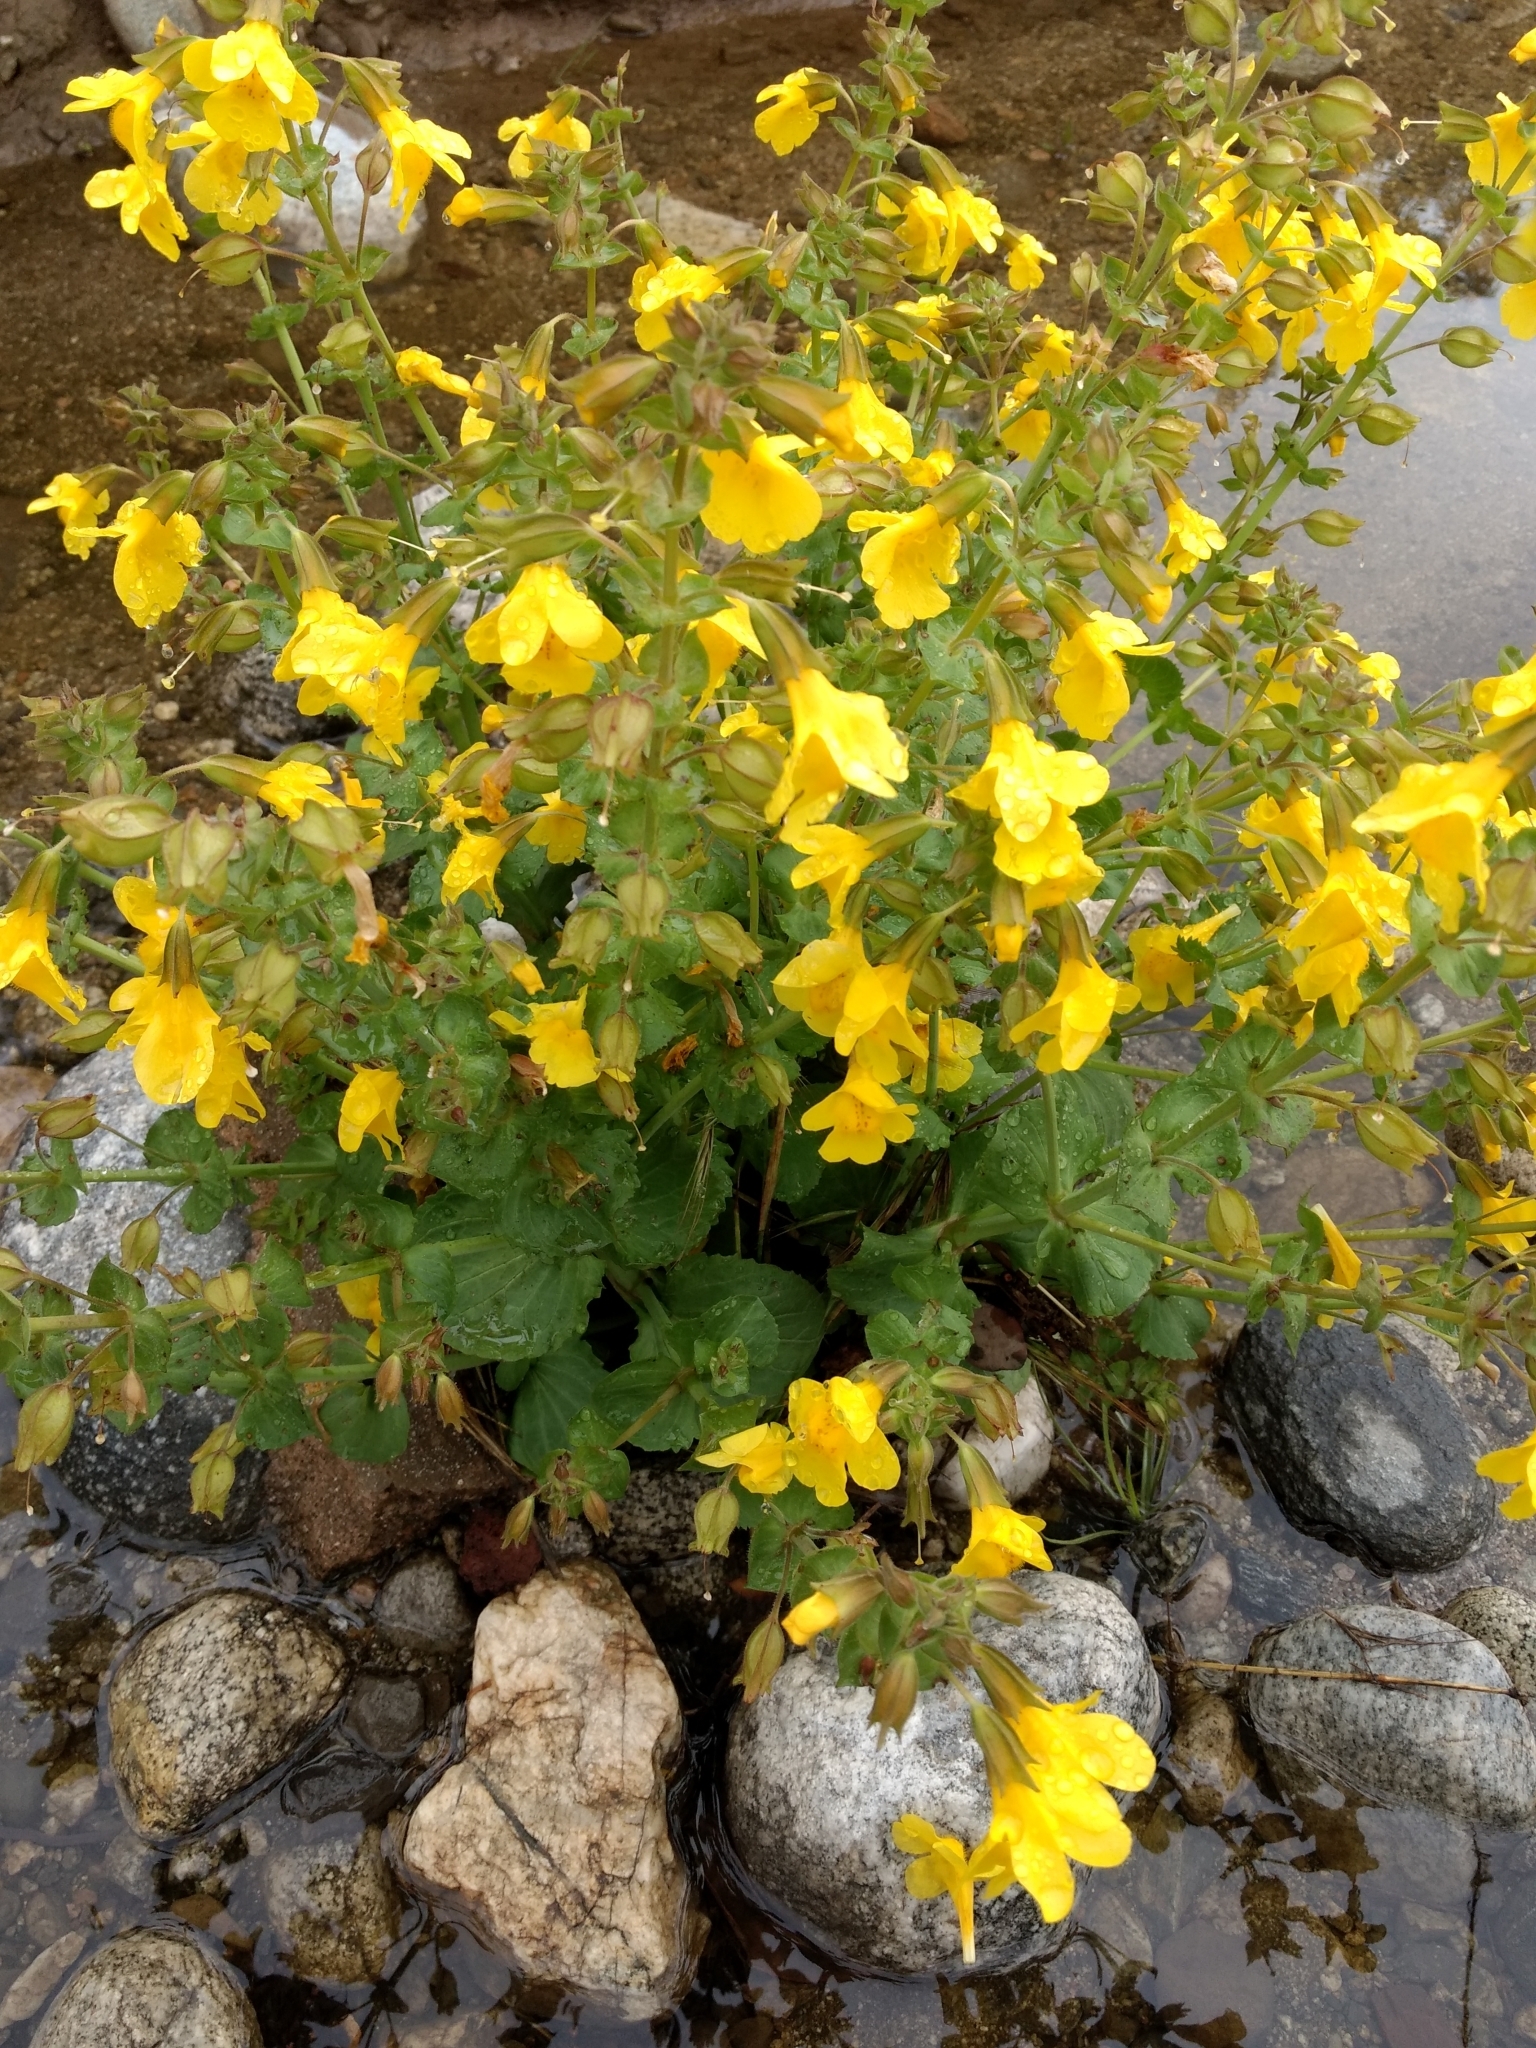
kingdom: Plantae
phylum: Tracheophyta
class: Magnoliopsida
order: Lamiales
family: Phrymaceae
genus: Erythranthe
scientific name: Erythranthe guttata
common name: Monkeyflower
